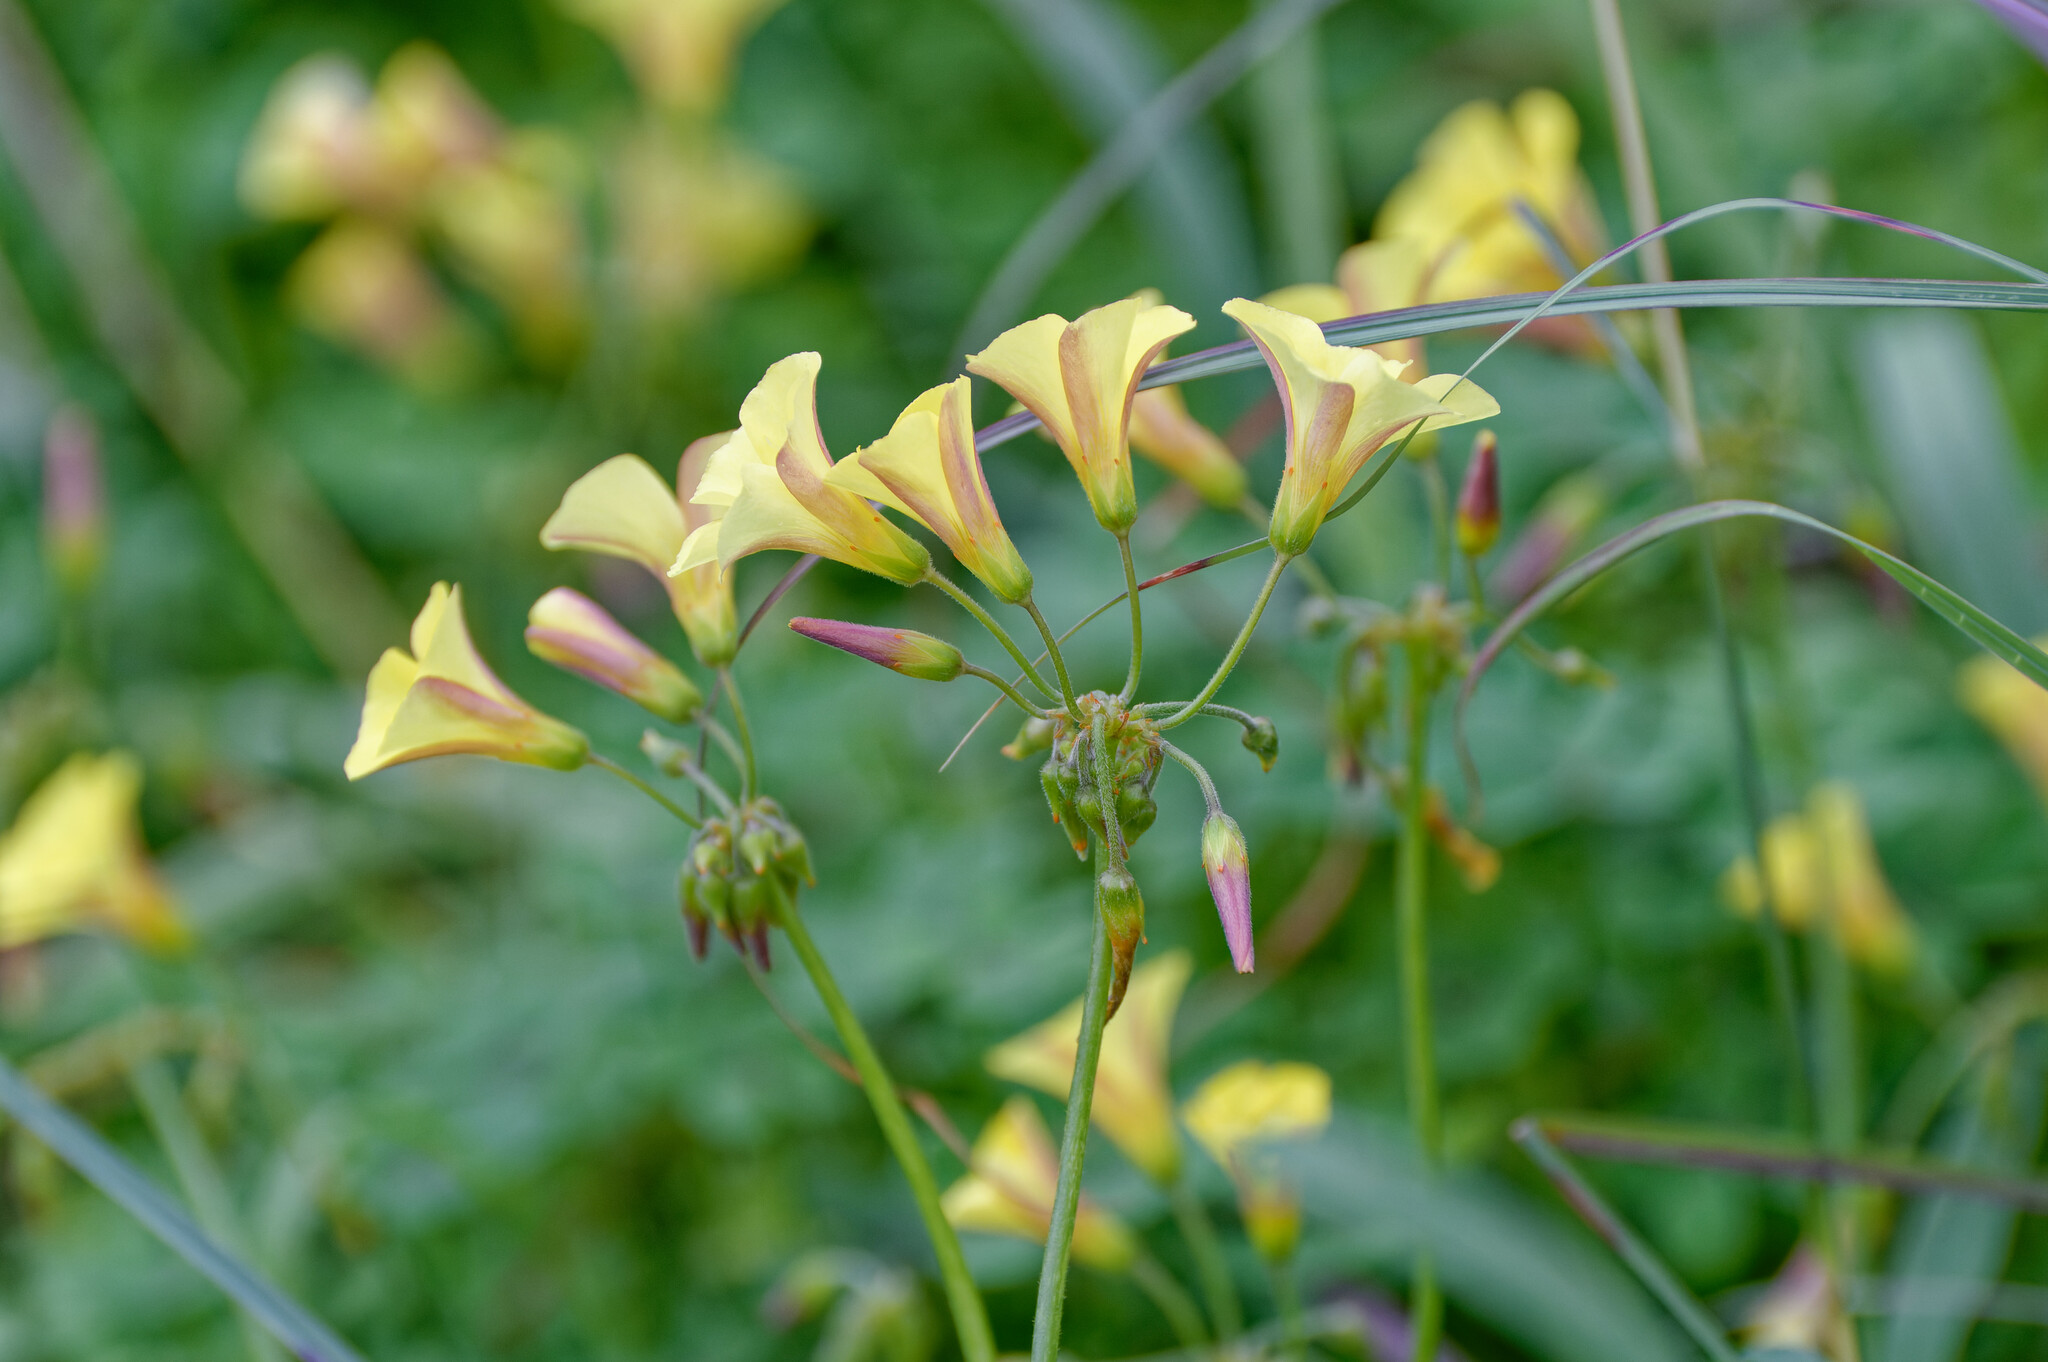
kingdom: Plantae
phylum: Tracheophyta
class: Magnoliopsida
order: Oxalidales
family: Oxalidaceae
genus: Oxalis
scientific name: Oxalis pes-caprae
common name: Bermuda-buttercup
